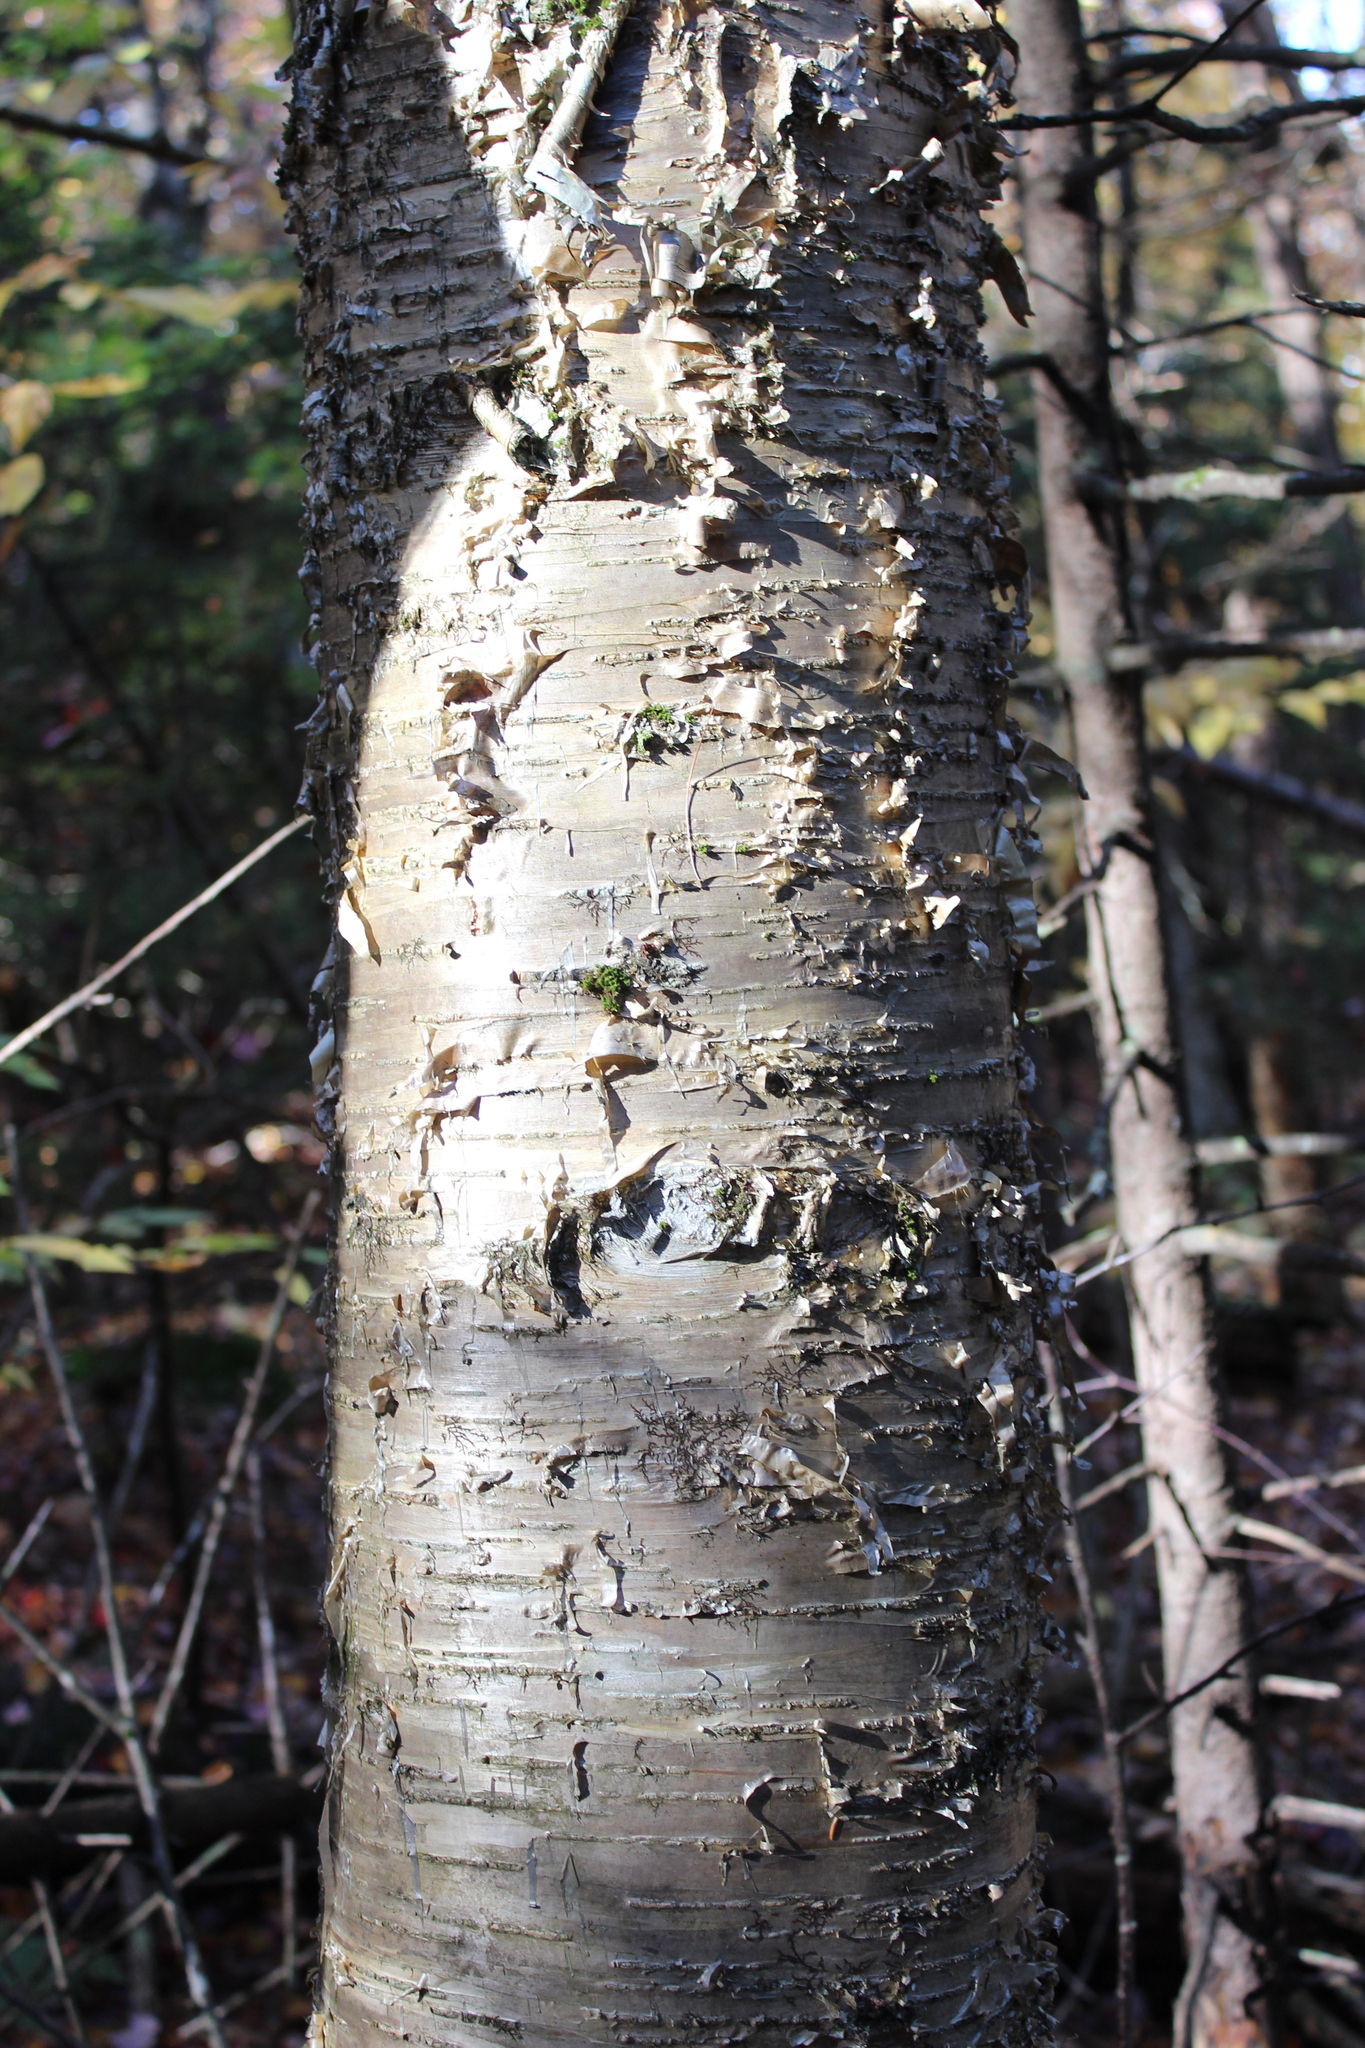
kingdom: Plantae
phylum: Tracheophyta
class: Magnoliopsida
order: Fagales
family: Betulaceae
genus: Betula
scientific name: Betula alleghaniensis
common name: Yellow birch
